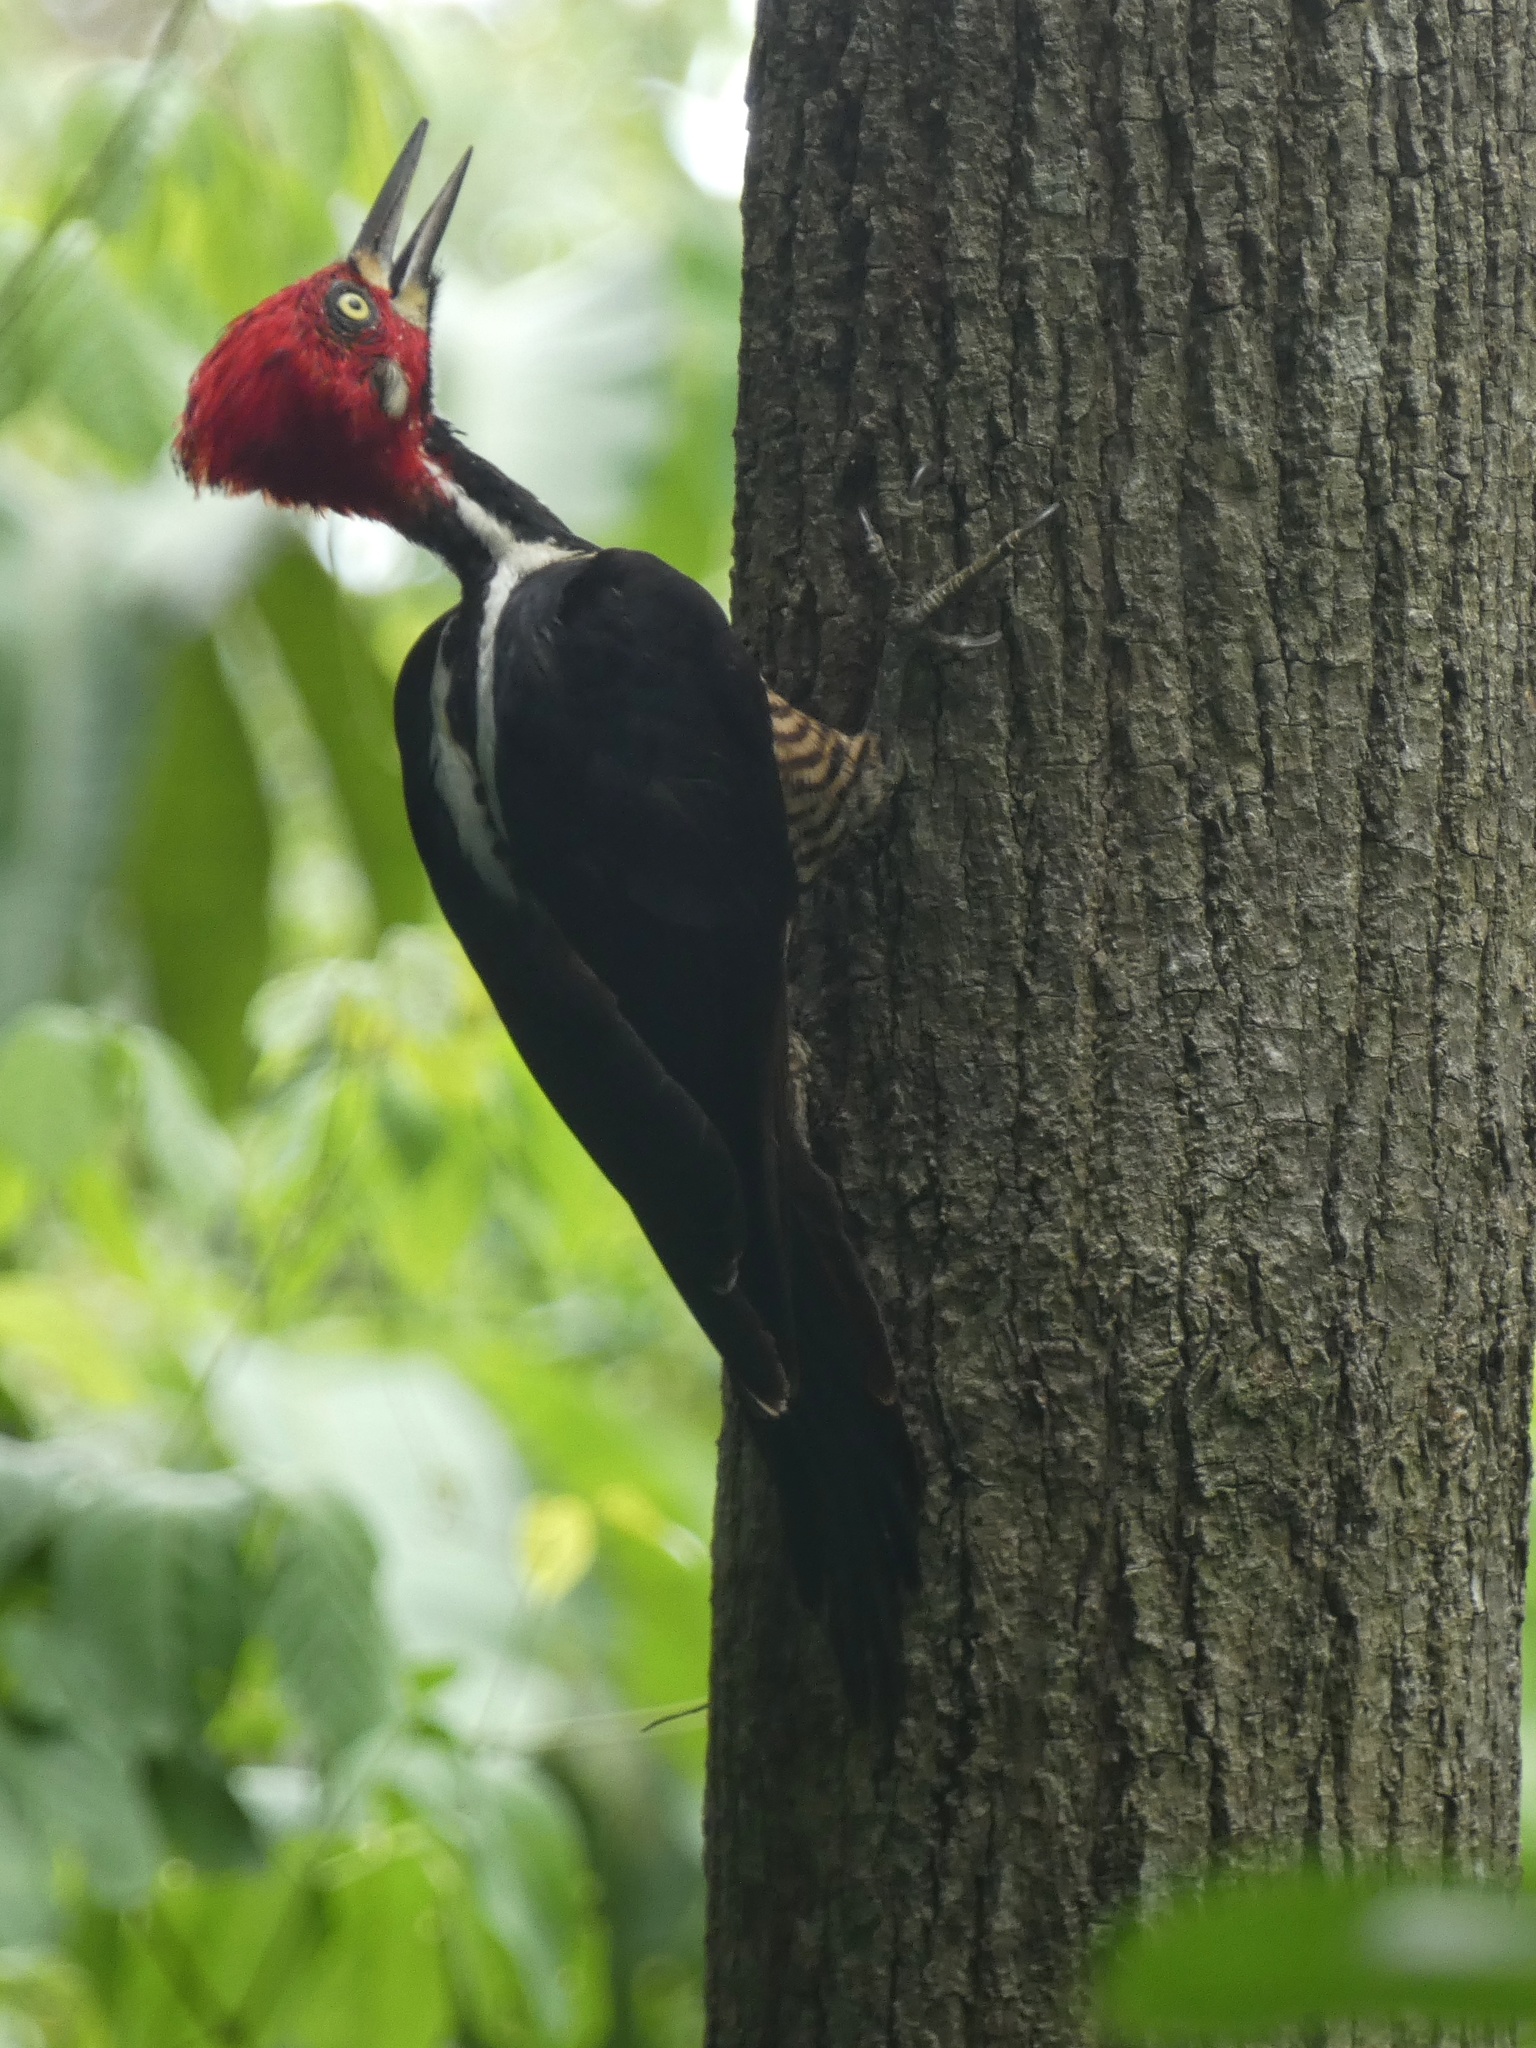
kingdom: Animalia
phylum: Chordata
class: Aves
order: Piciformes
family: Picidae
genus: Campephilus
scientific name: Campephilus melanoleucos
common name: Crimson-crested woodpecker
